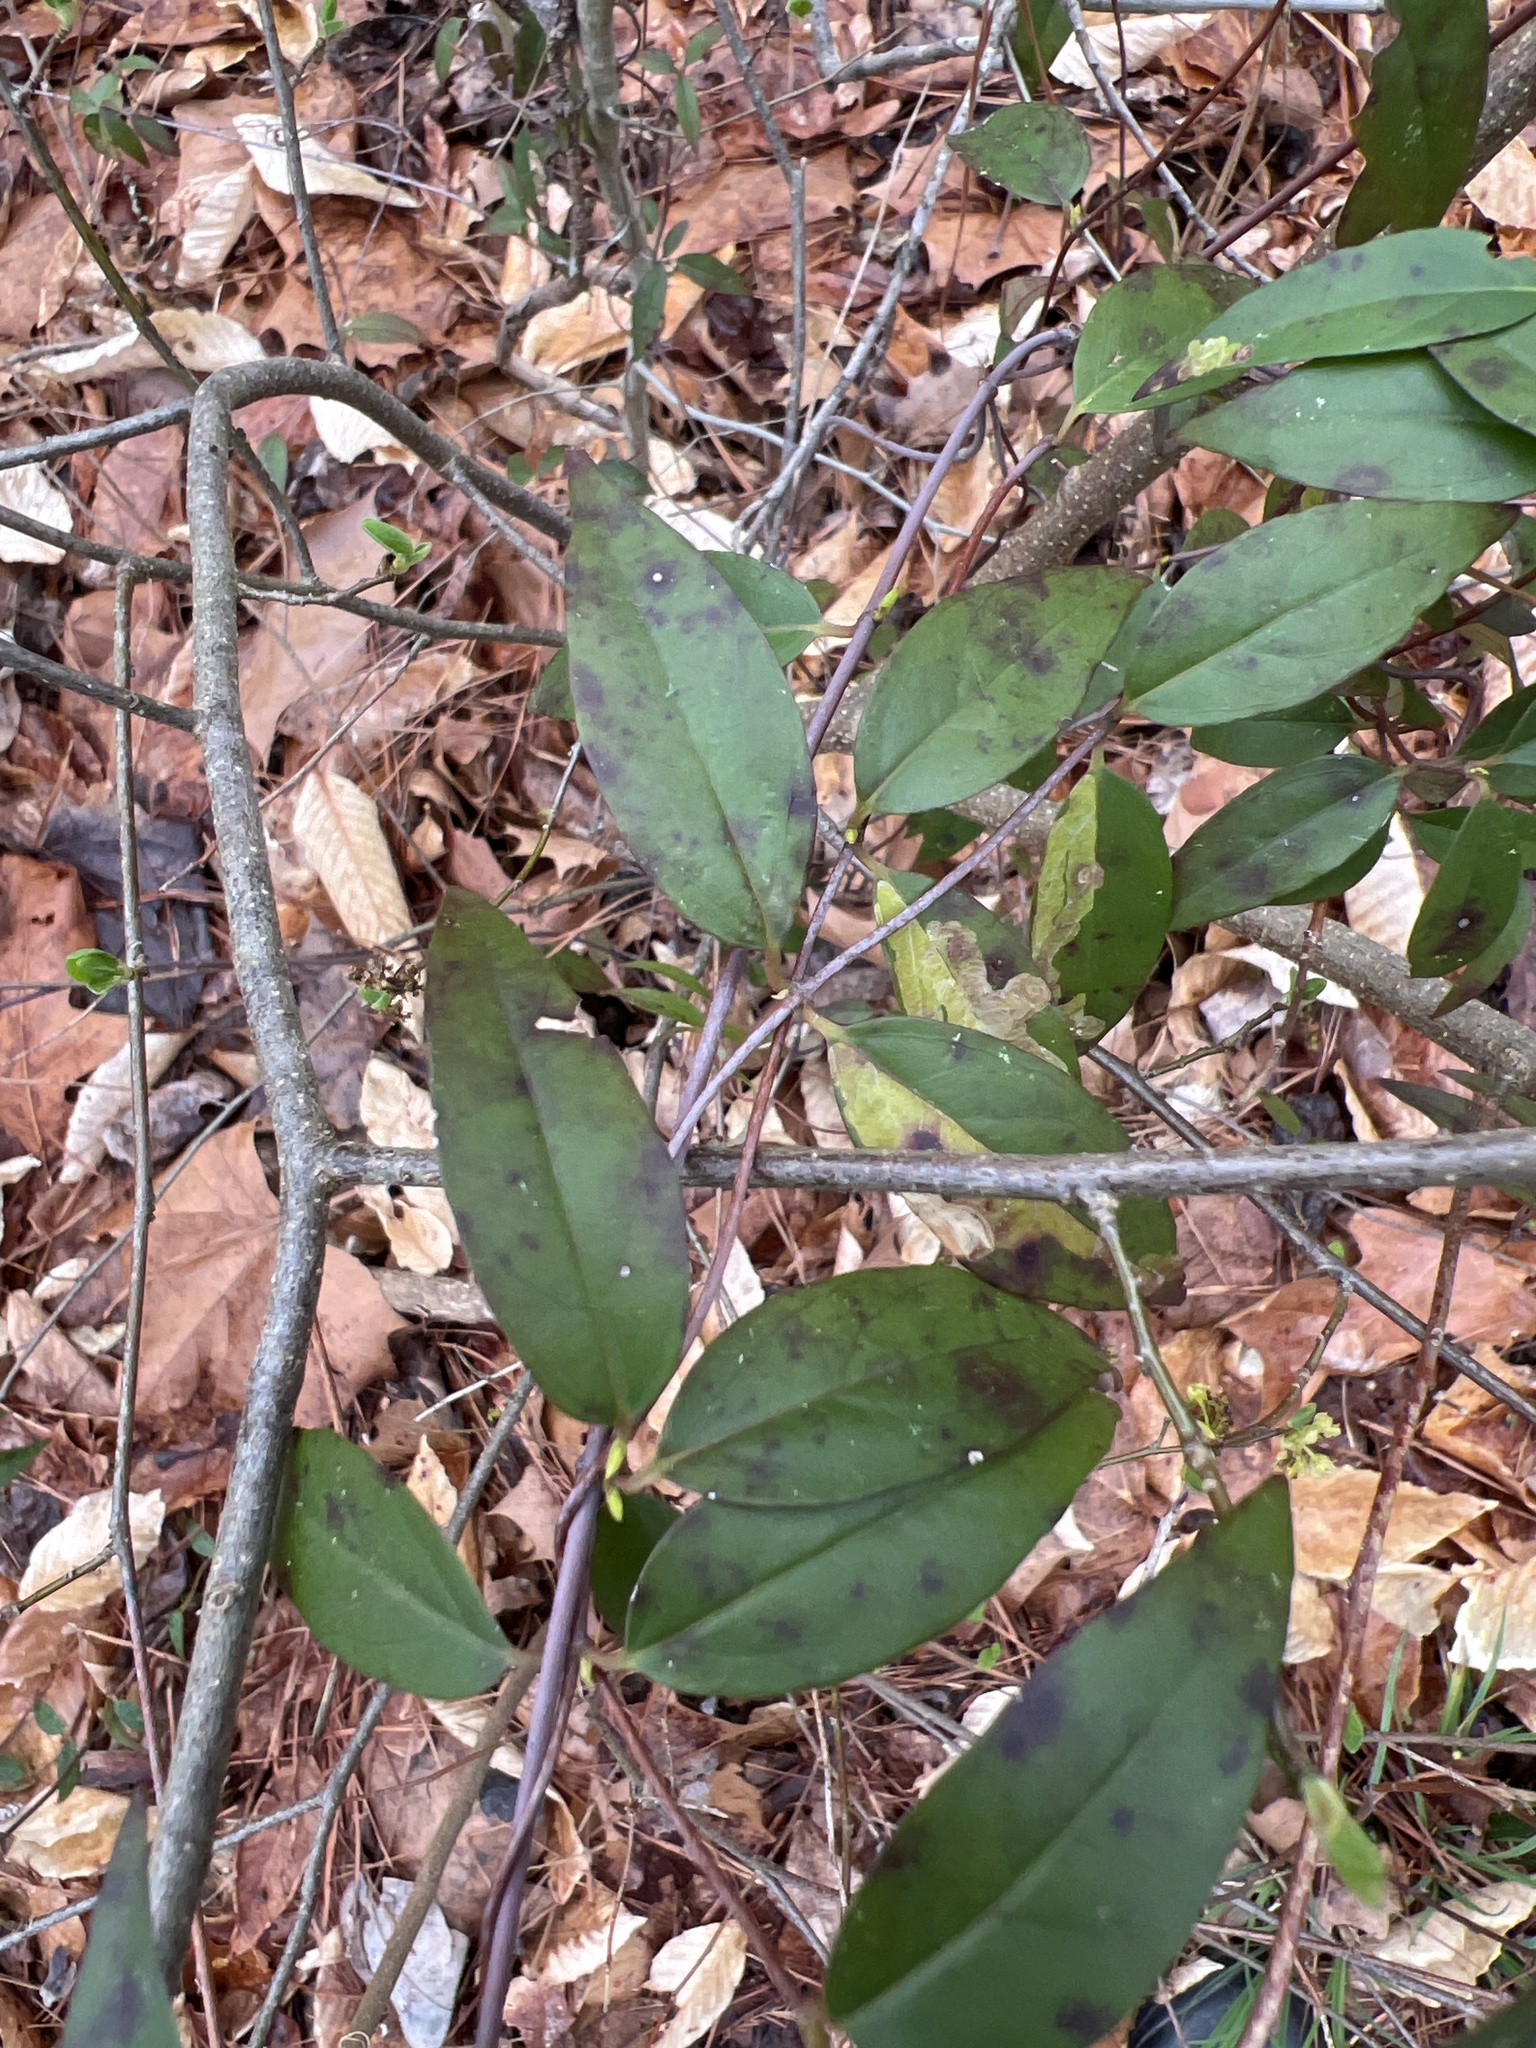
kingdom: Plantae
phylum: Tracheophyta
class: Magnoliopsida
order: Gentianales
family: Gelsemiaceae
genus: Gelsemium
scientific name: Gelsemium sempervirens
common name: Carolina-jasmine
